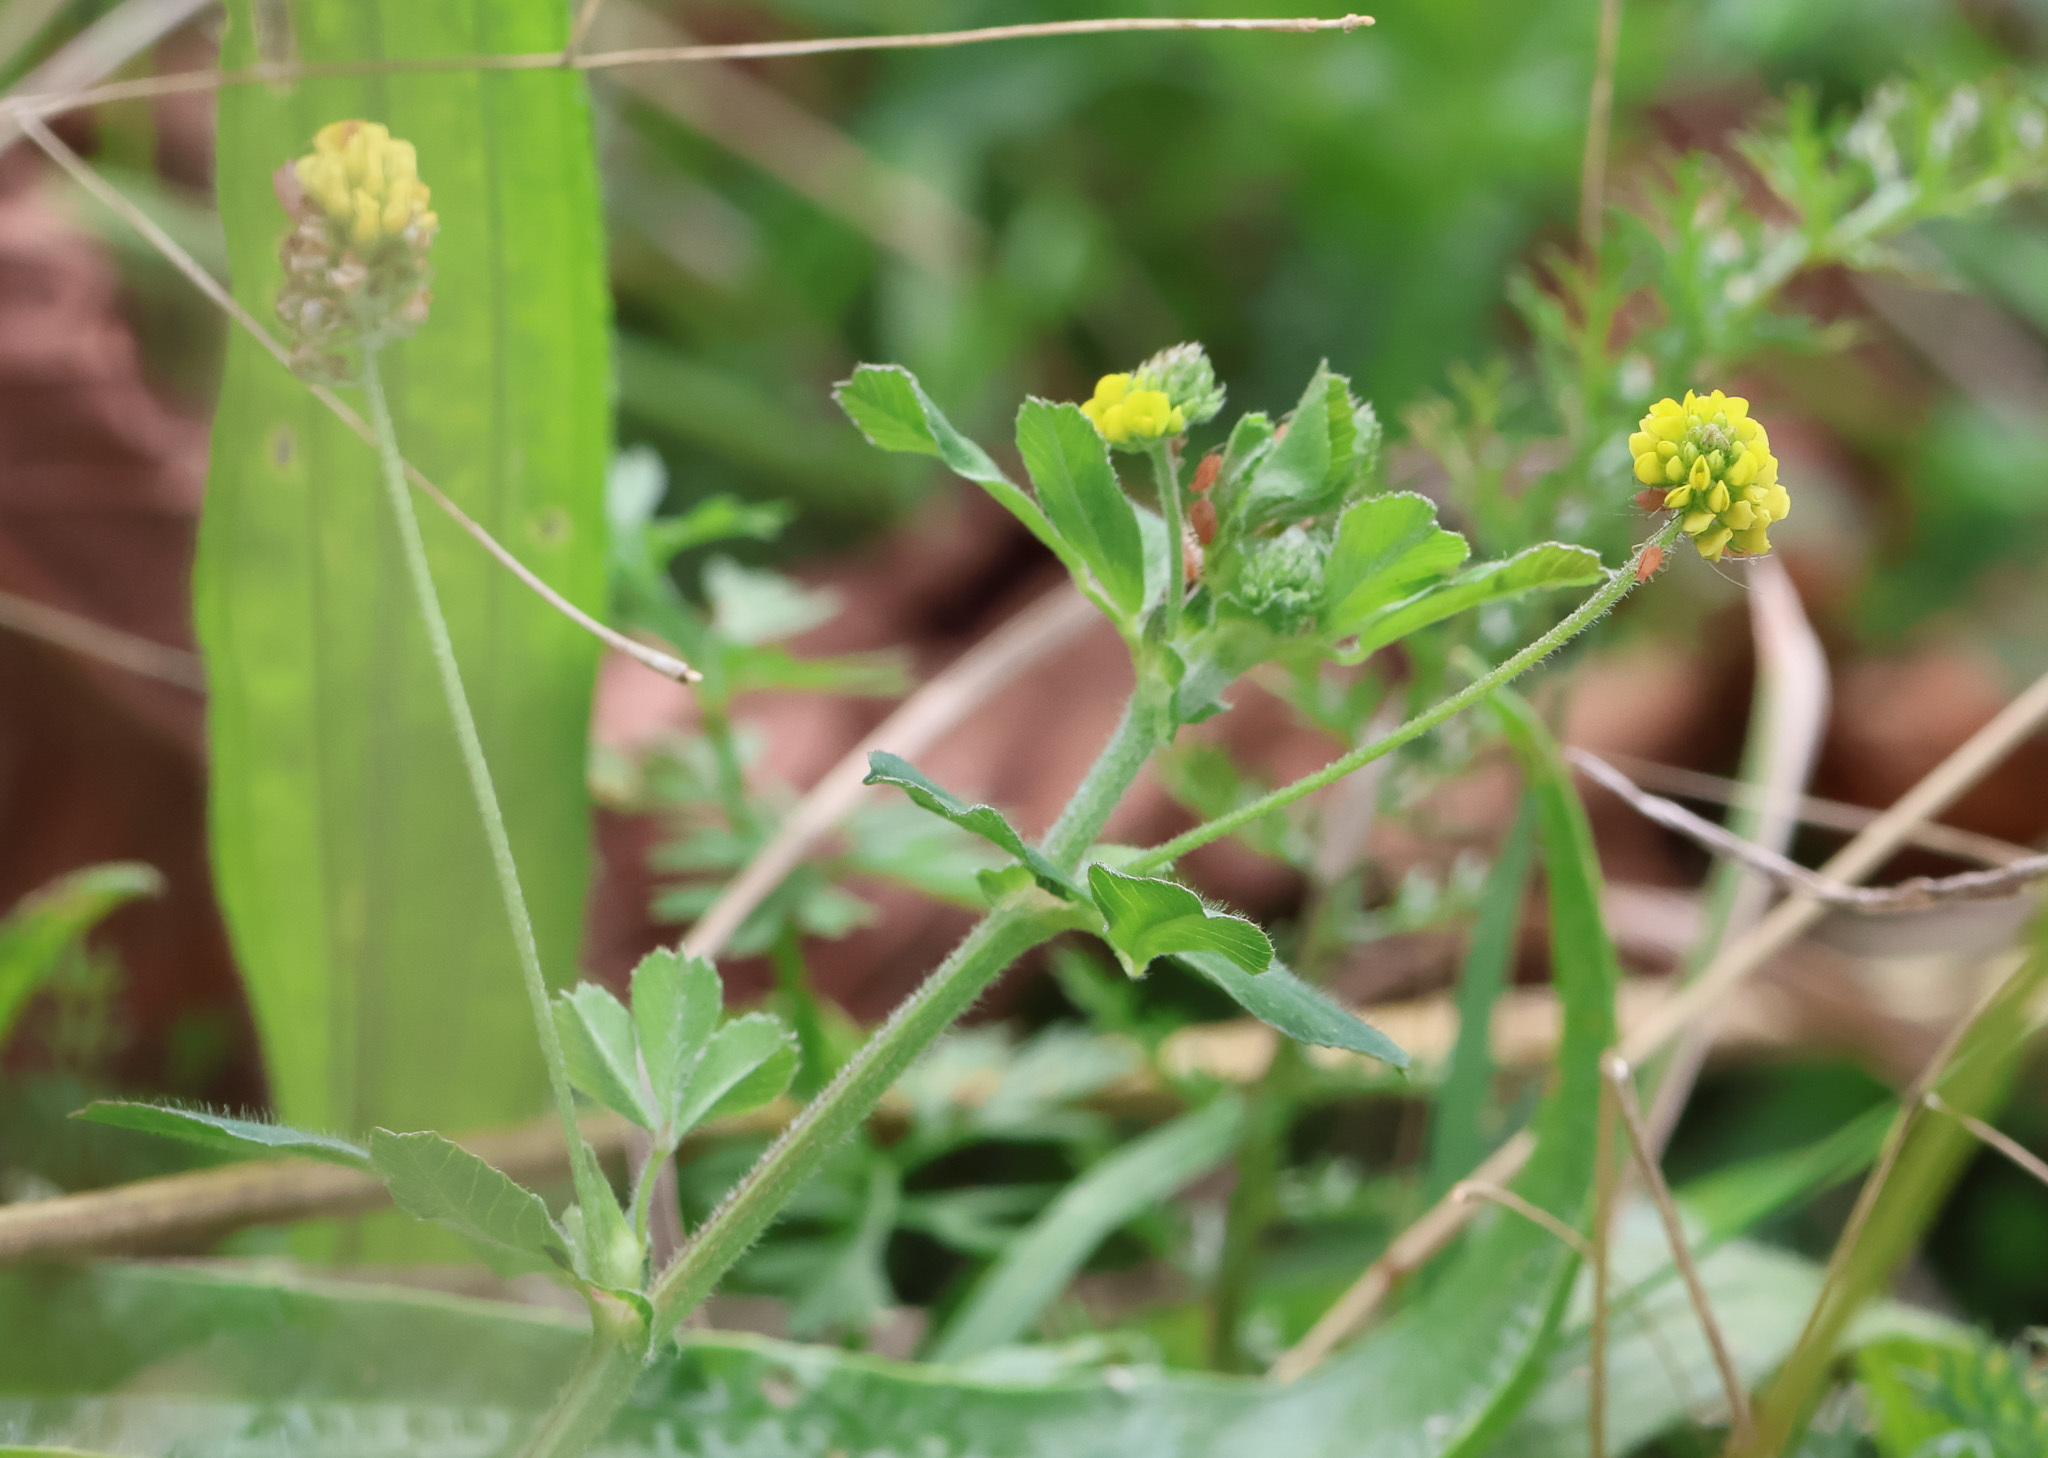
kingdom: Plantae
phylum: Tracheophyta
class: Magnoliopsida
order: Fabales
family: Fabaceae
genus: Medicago
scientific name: Medicago lupulina
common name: Black medick
